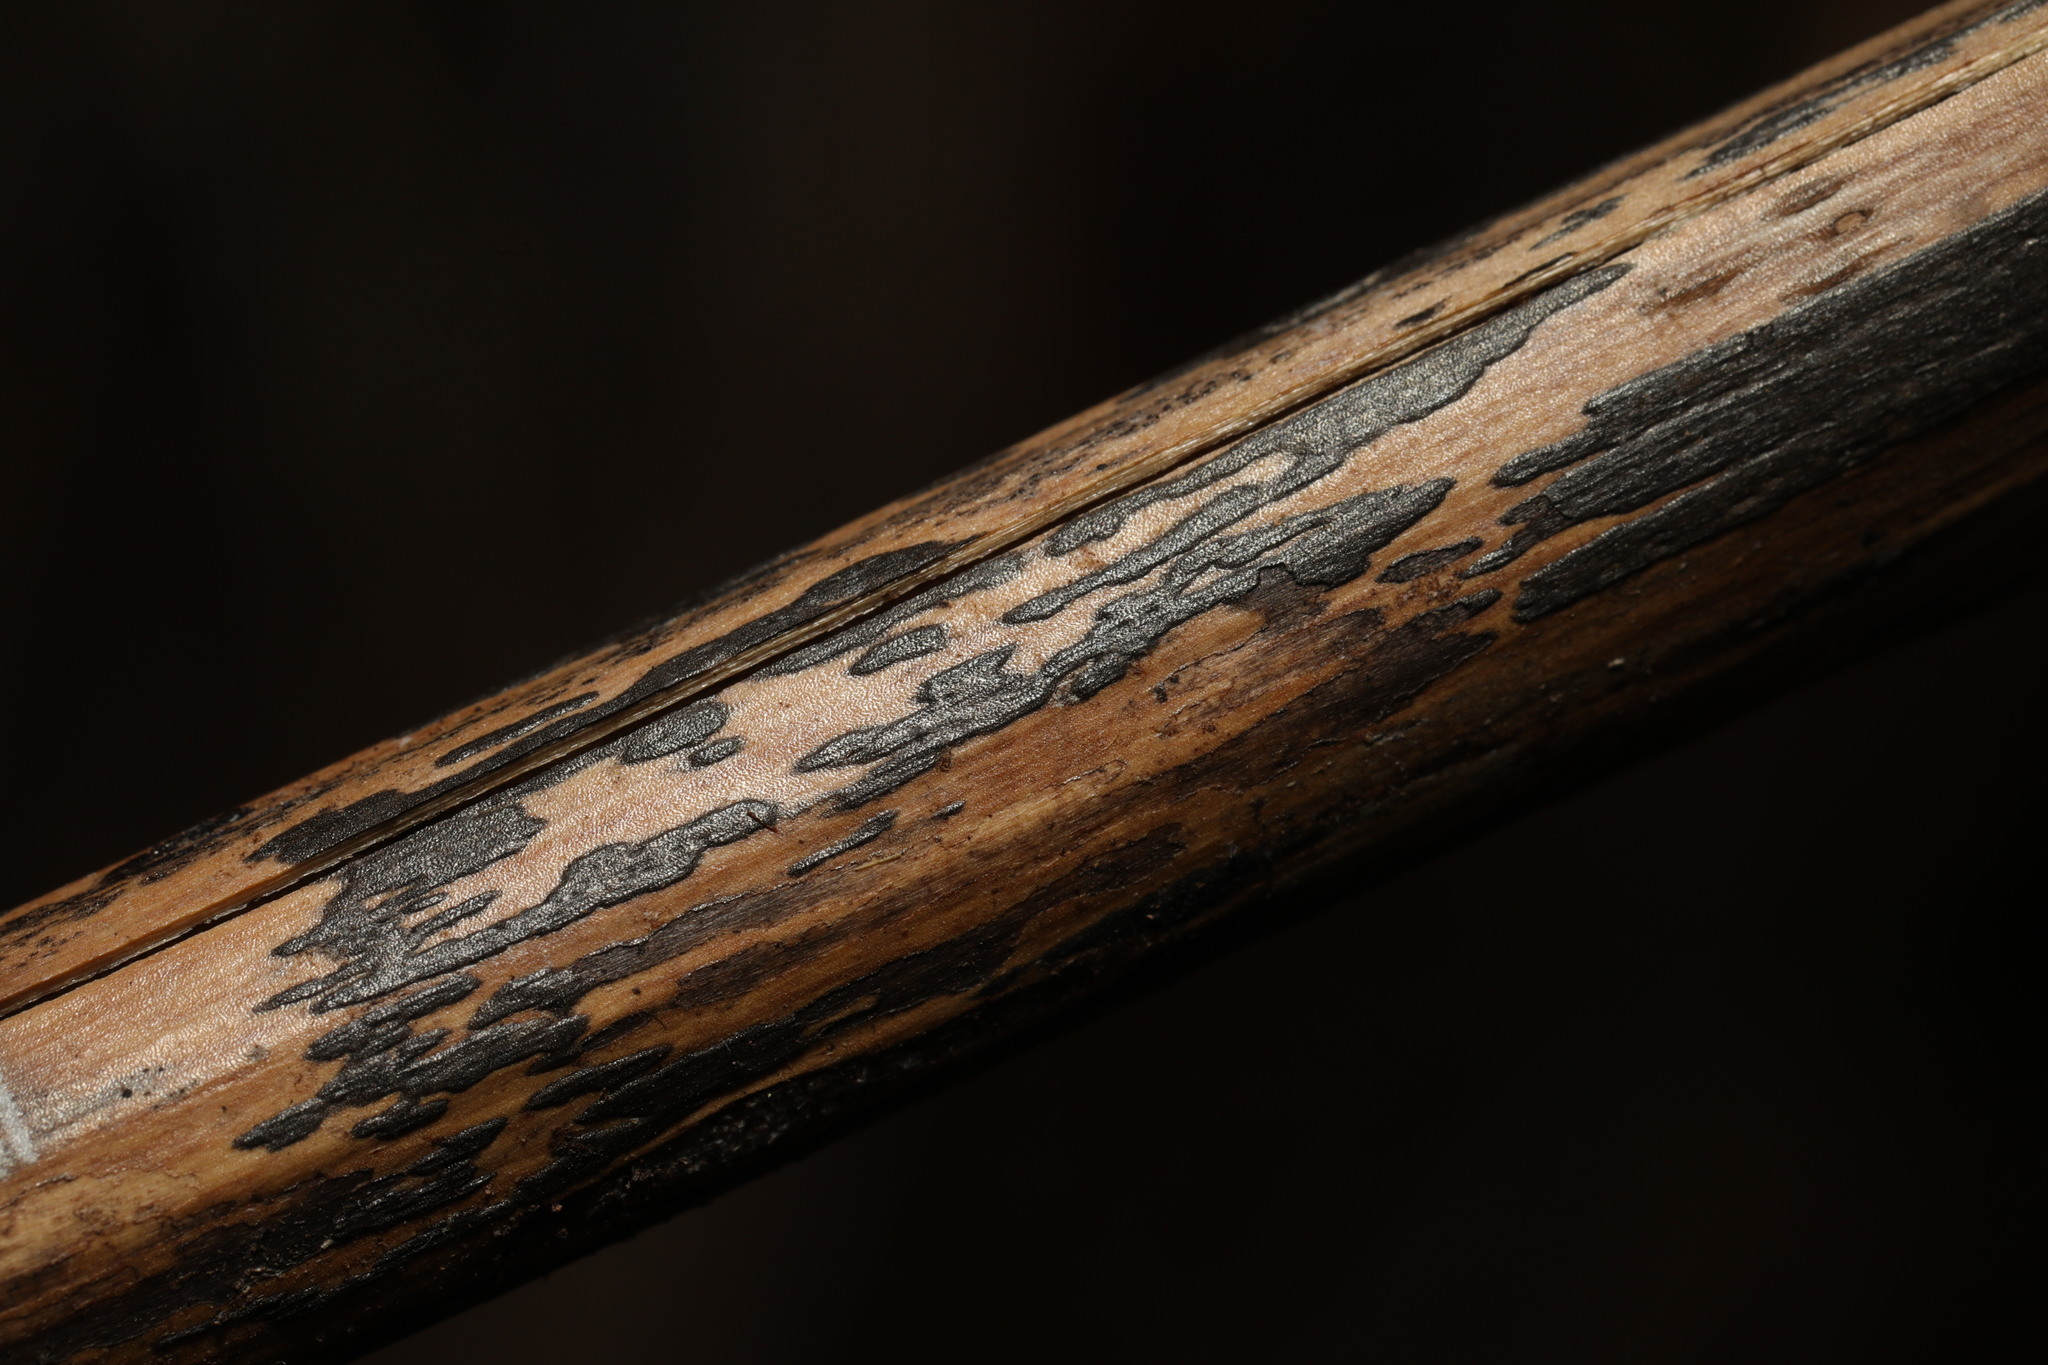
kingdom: Fungi
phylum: Ascomycota
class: Dothideomycetes
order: Pleosporales
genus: Rhopographus
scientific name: Rhopographus filicinus
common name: Bracken map
